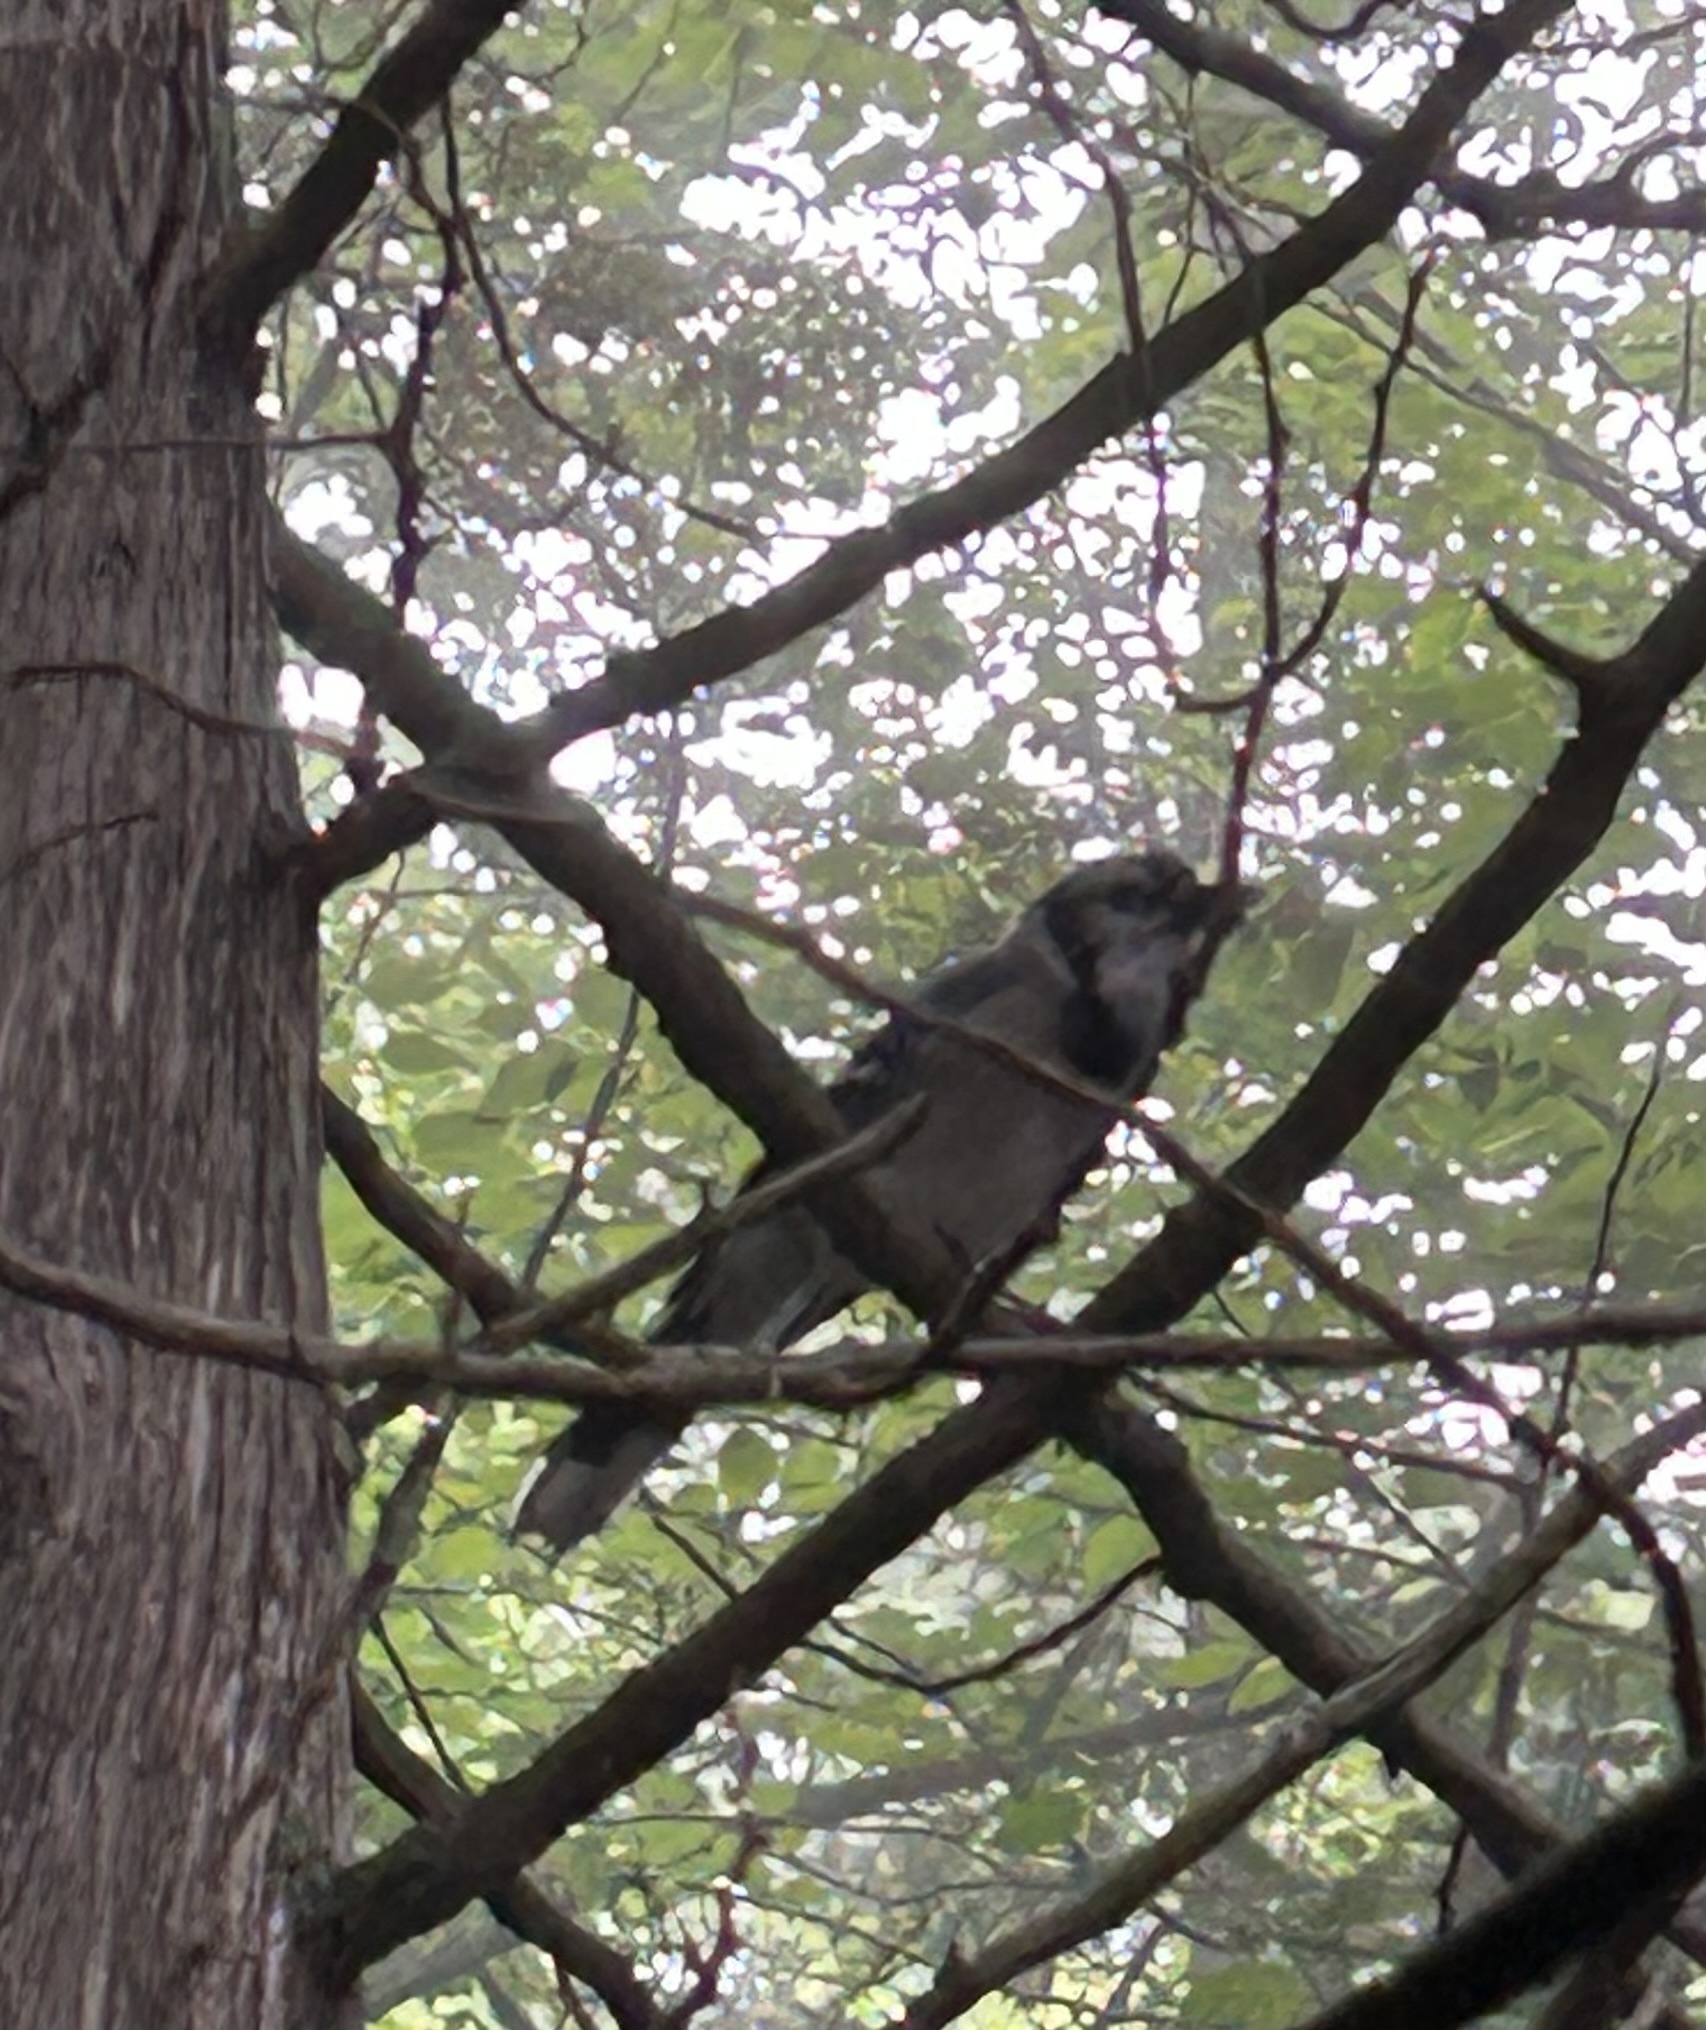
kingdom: Animalia
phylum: Chordata
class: Aves
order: Passeriformes
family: Corvidae
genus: Cyanocitta
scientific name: Cyanocitta cristata
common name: Blue jay
